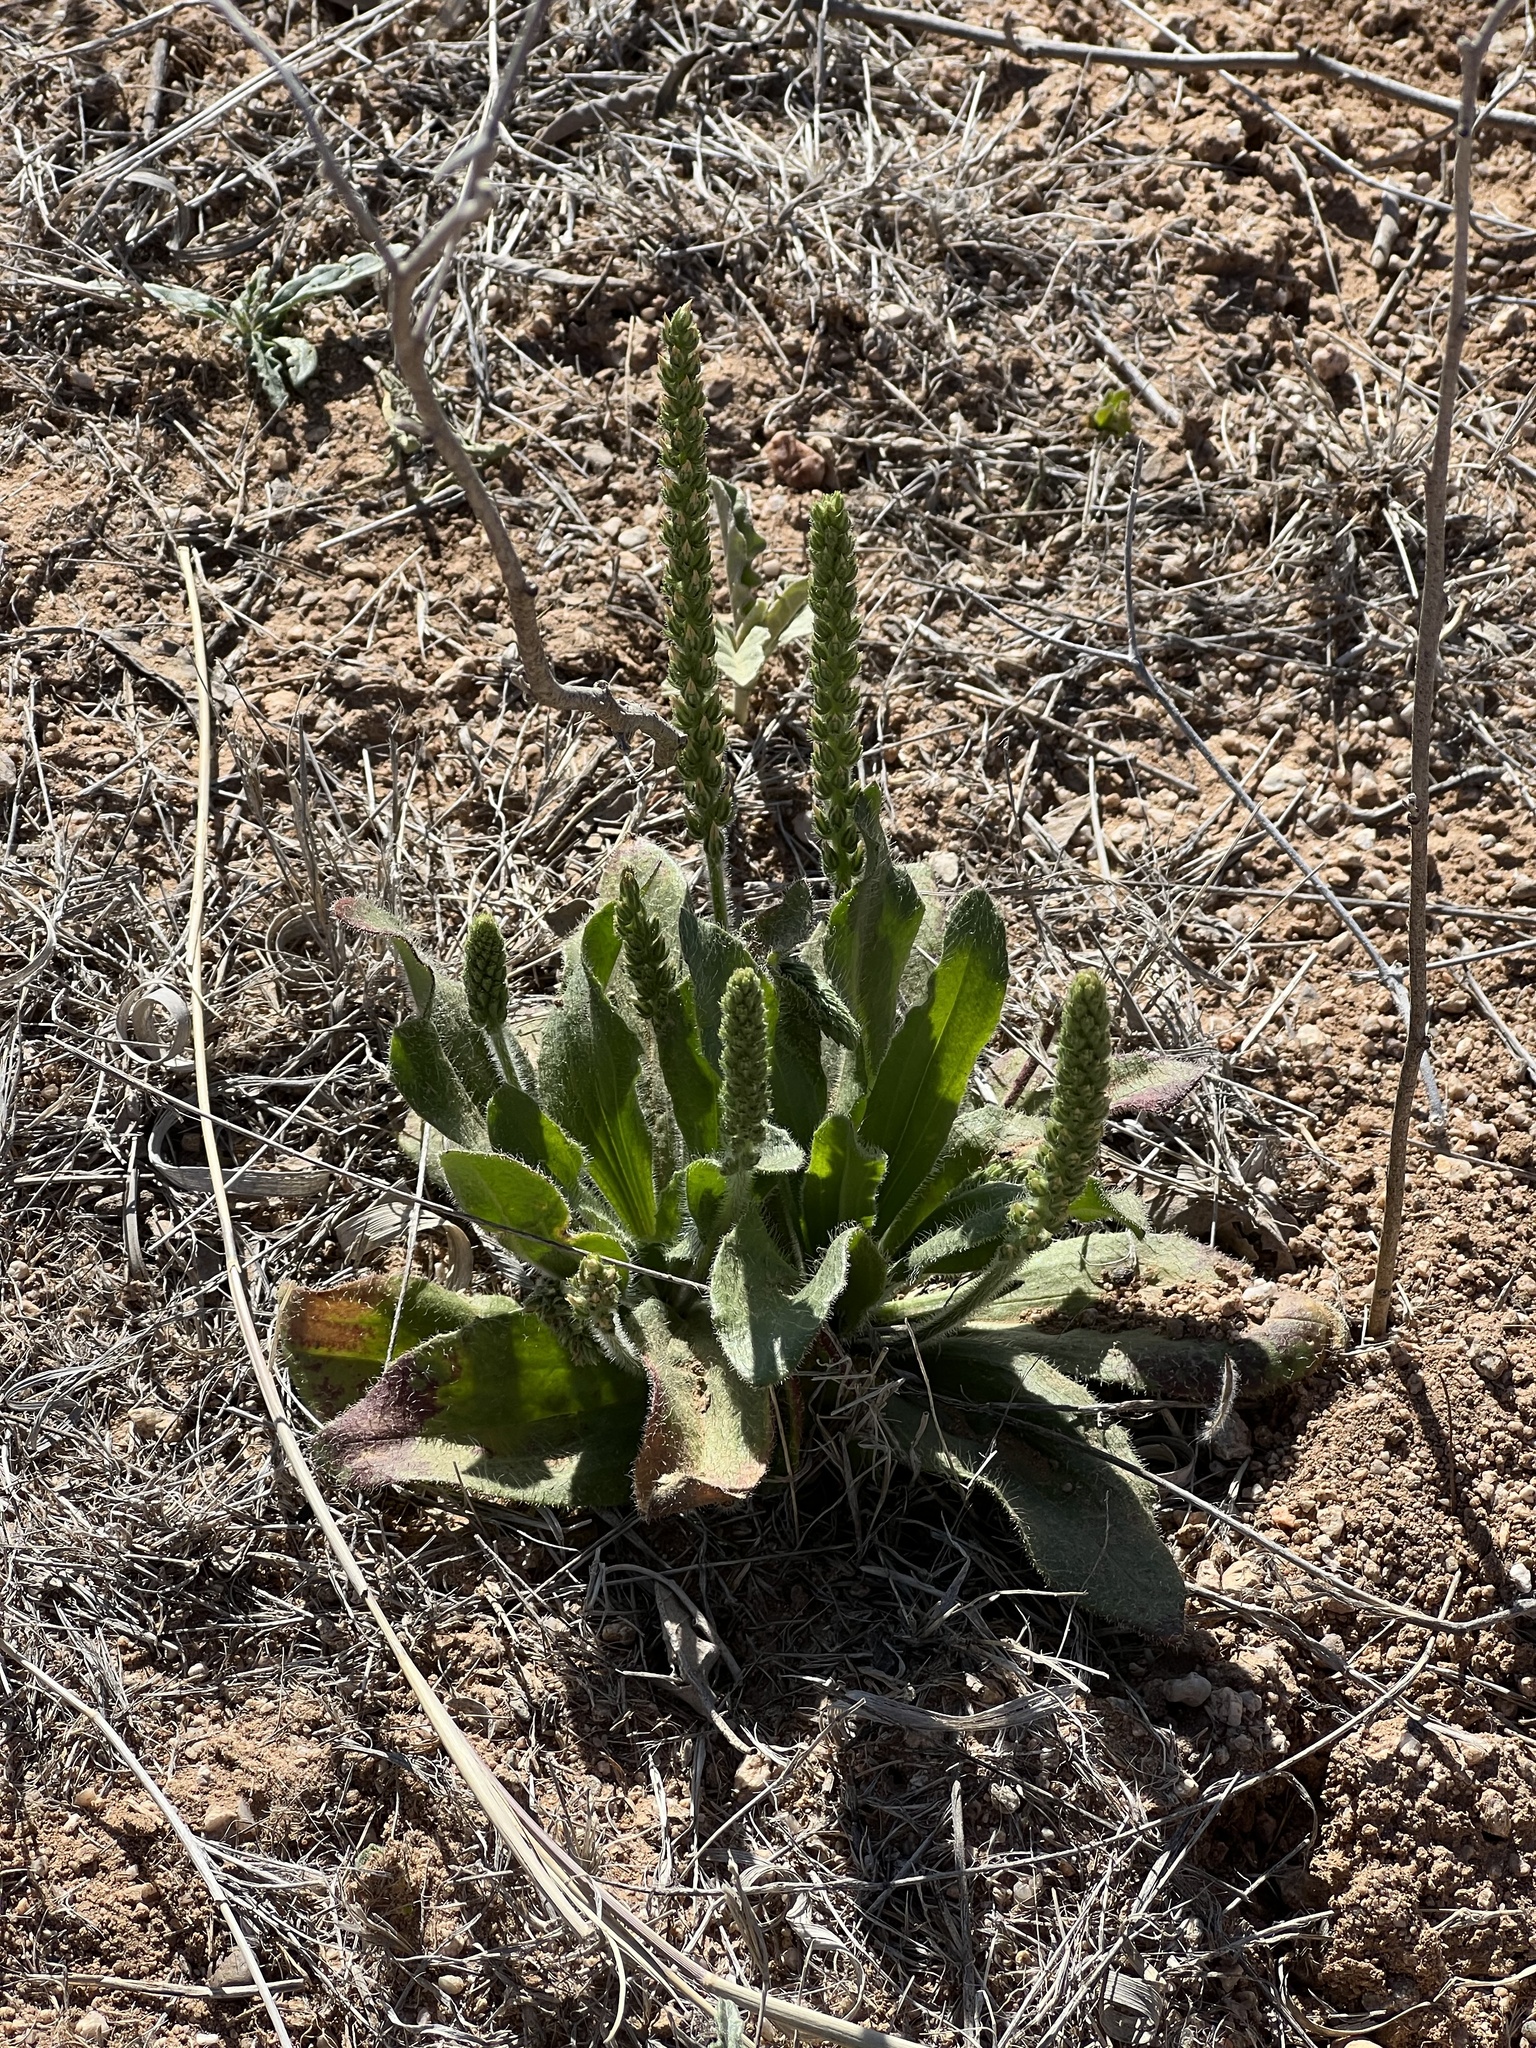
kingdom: Plantae
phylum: Tracheophyta
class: Magnoliopsida
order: Lamiales
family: Plantaginaceae
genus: Plantago
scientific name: Plantago rhodosperma
